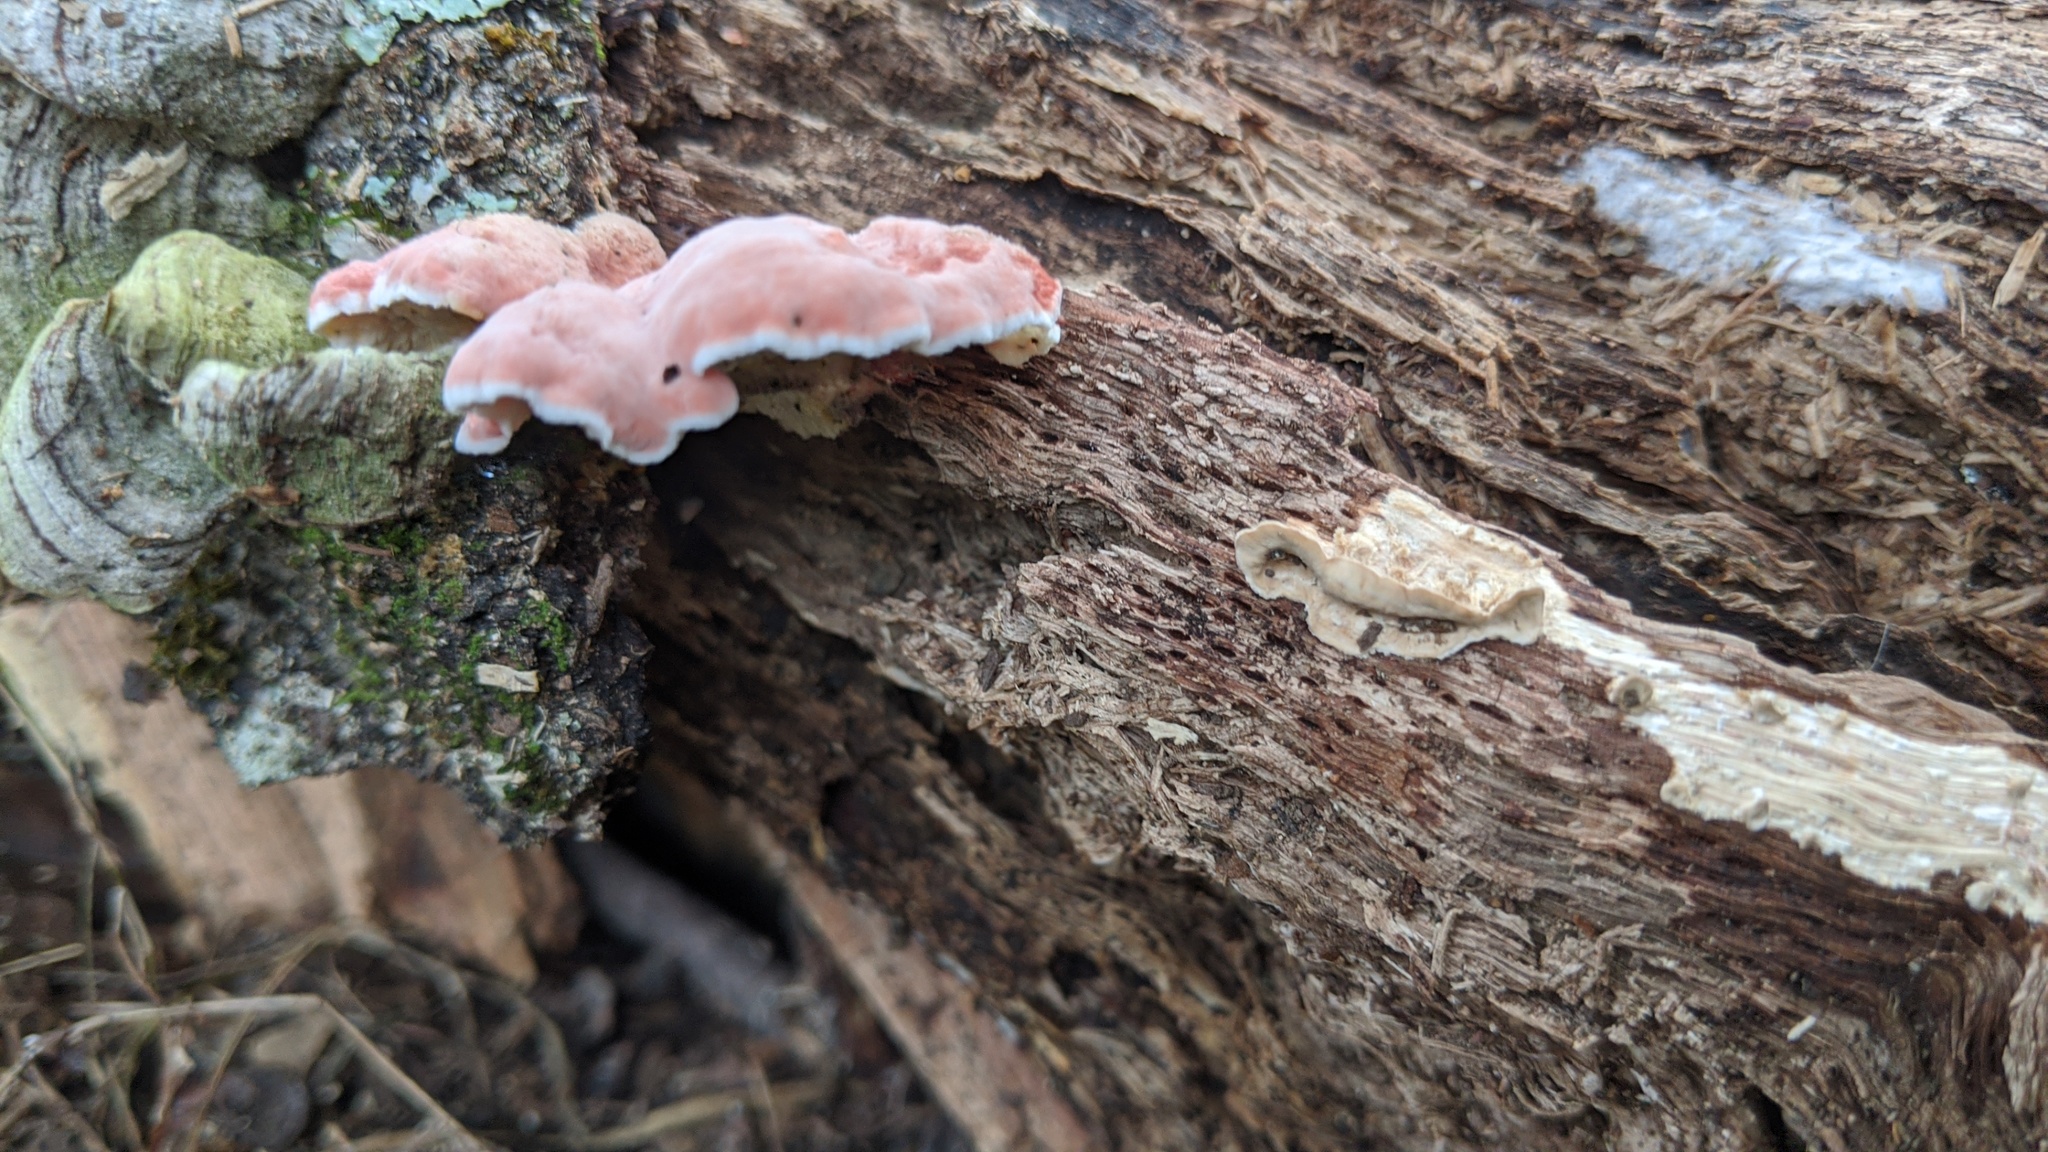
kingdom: Fungi
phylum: Basidiomycota
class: Agaricomycetes
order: Polyporales
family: Irpicaceae
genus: Byssomerulius
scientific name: Byssomerulius incarnatus
